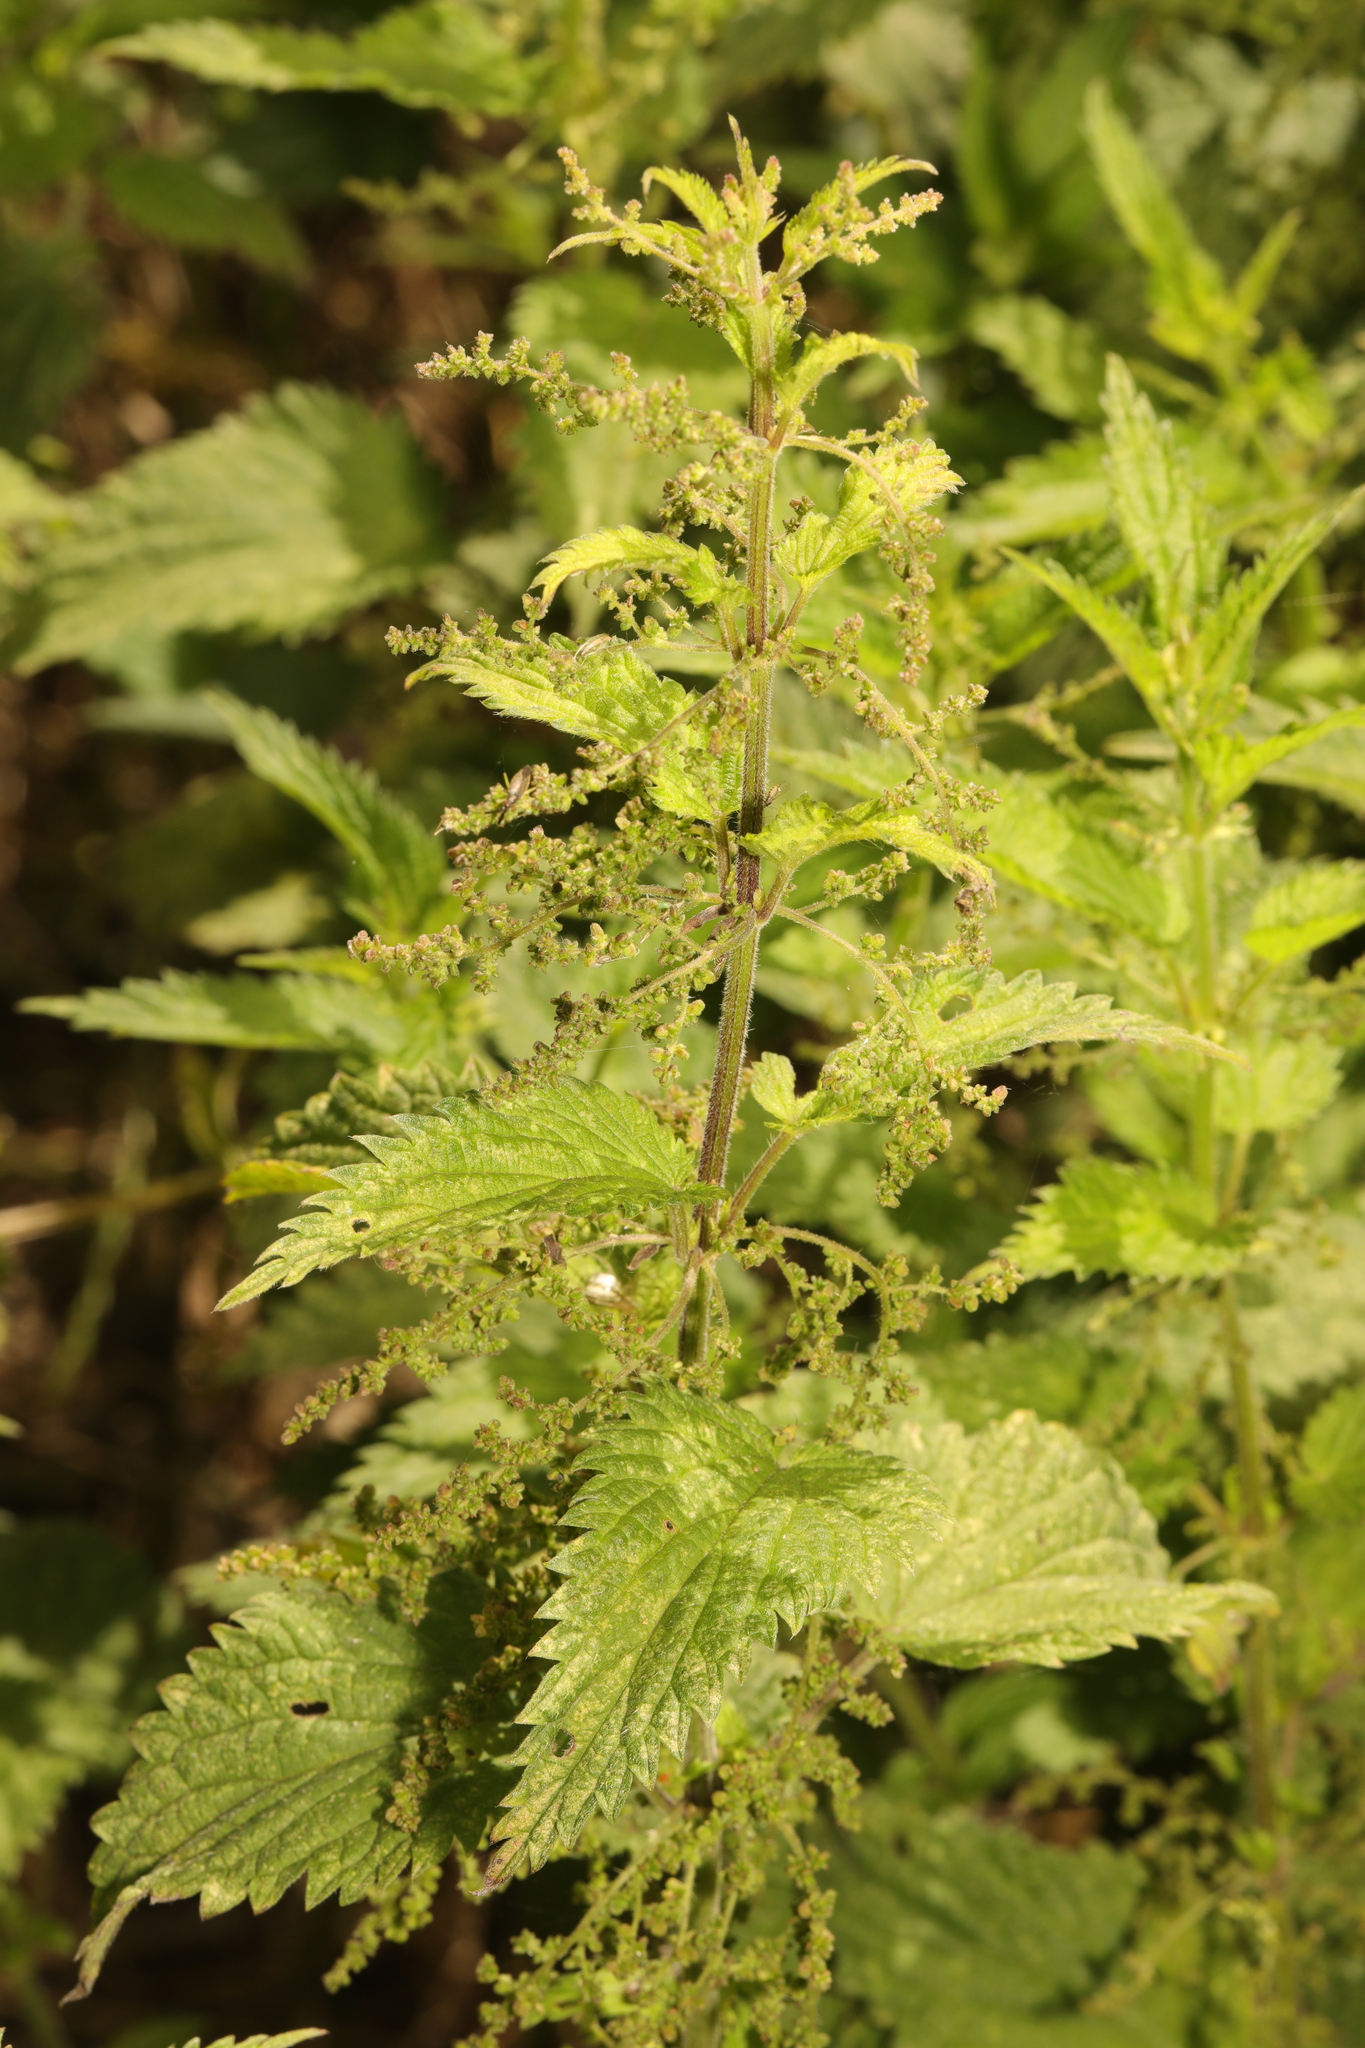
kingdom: Plantae
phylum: Tracheophyta
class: Magnoliopsida
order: Rosales
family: Urticaceae
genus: Urtica
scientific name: Urtica dioica
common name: Common nettle
